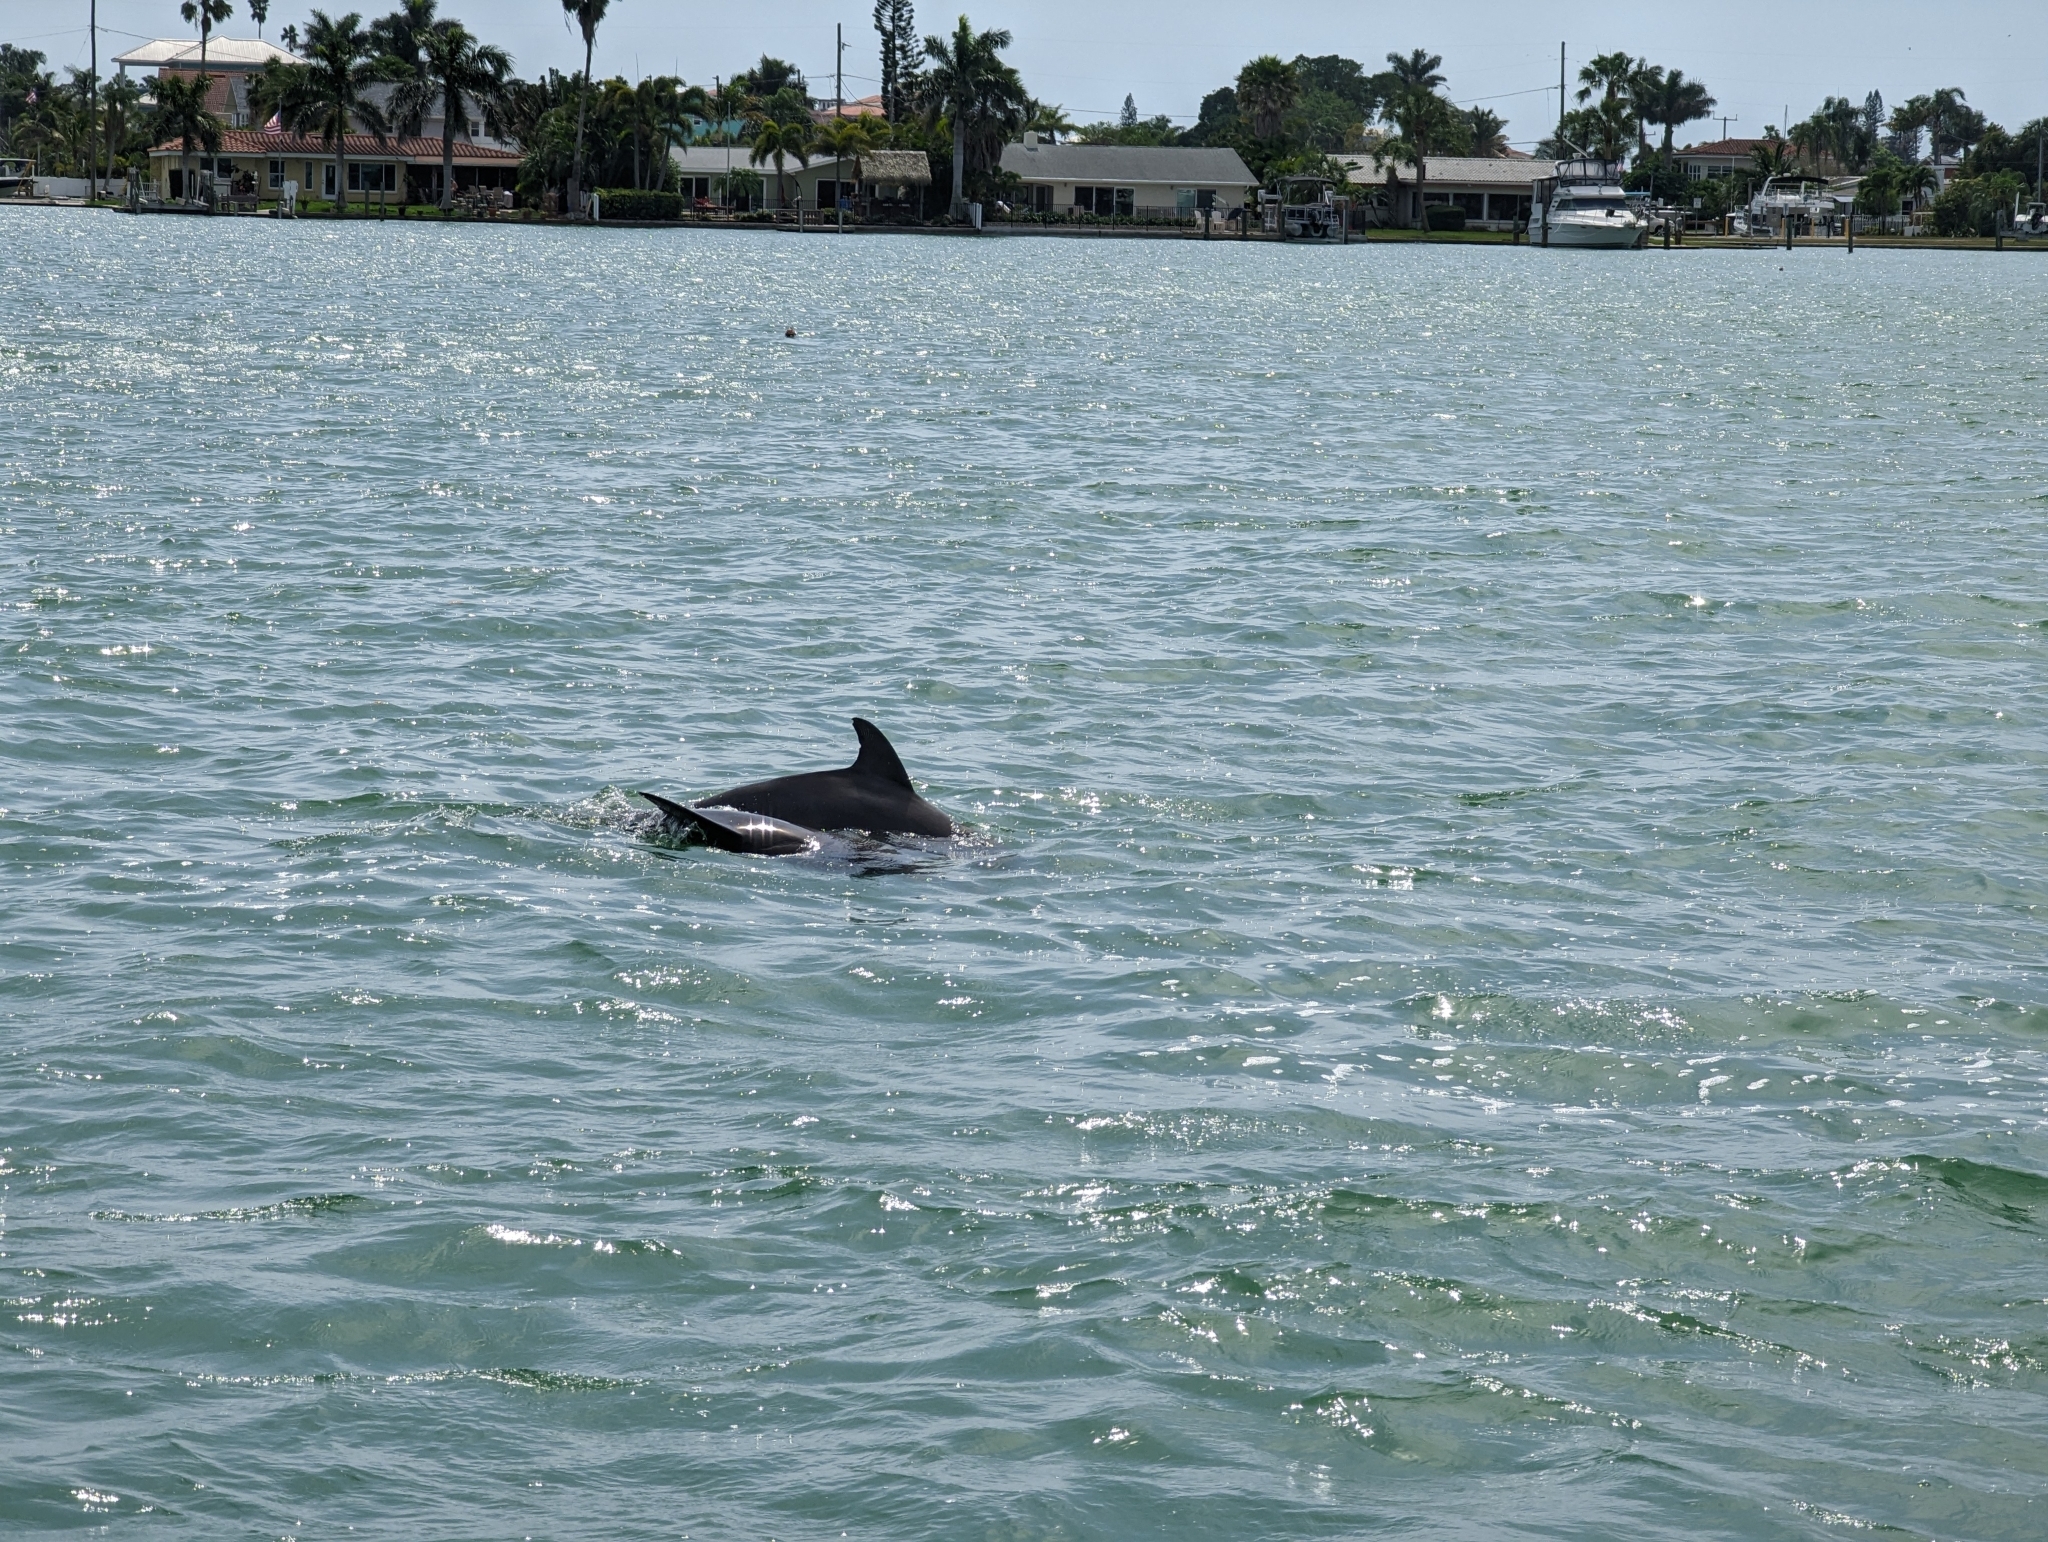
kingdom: Animalia
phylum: Chordata
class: Mammalia
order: Cetacea
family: Delphinidae
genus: Tursiops
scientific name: Tursiops truncatus
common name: Bottlenose dolphin
